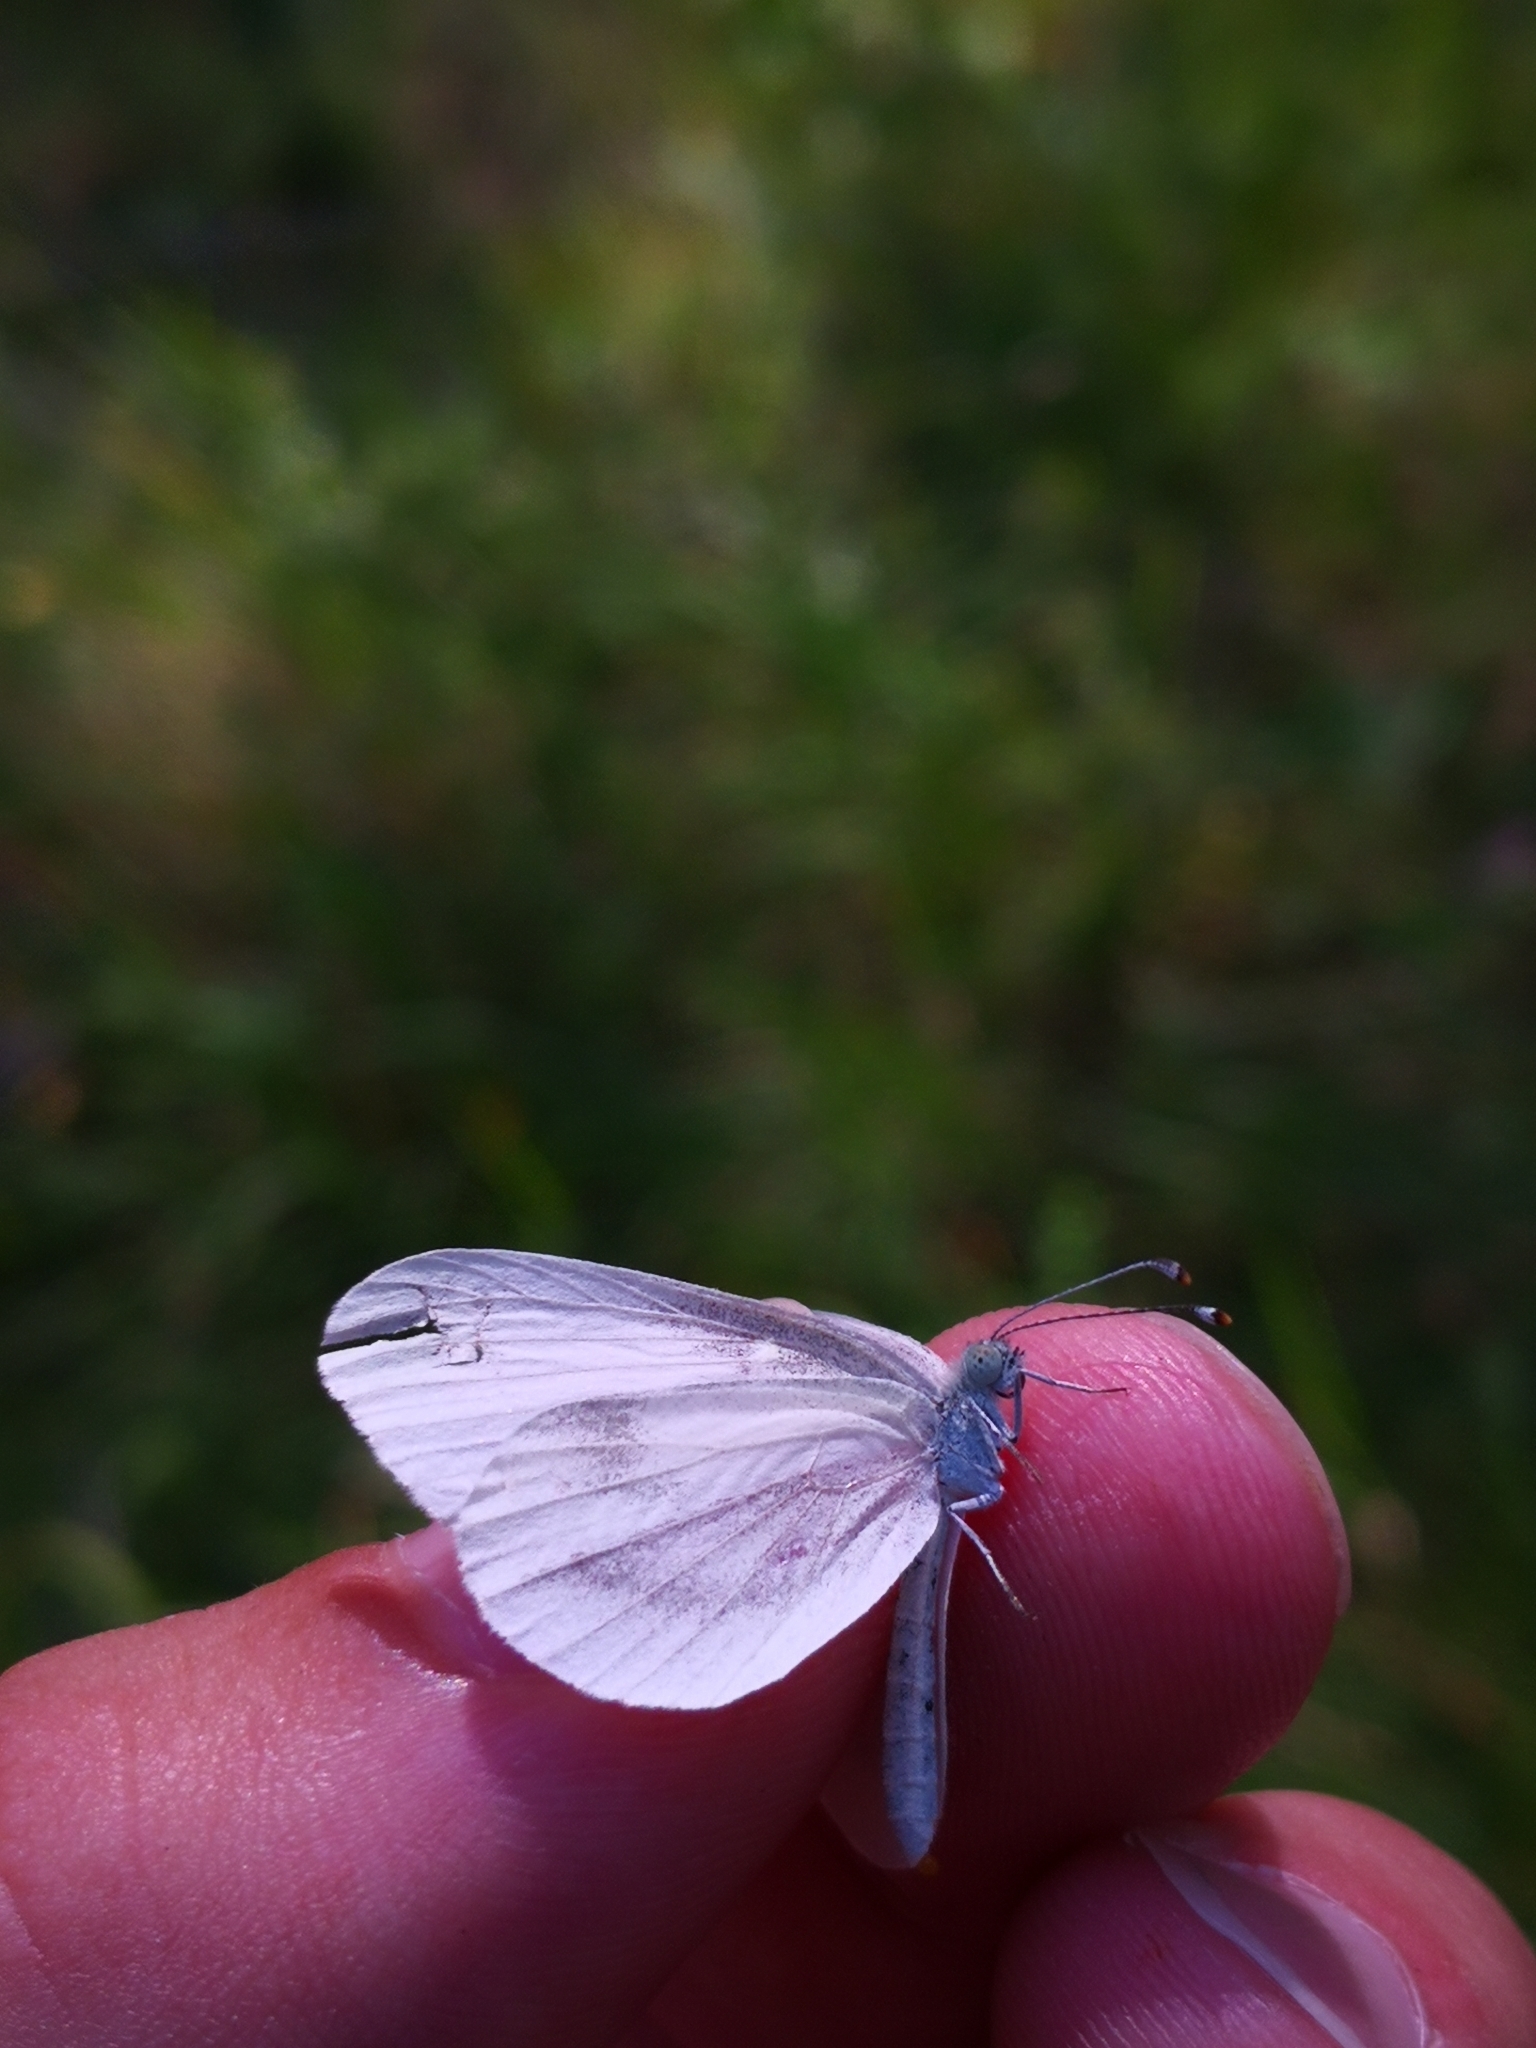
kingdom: Animalia
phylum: Arthropoda
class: Insecta
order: Lepidoptera
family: Pieridae
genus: Leptidea
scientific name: Leptidea
